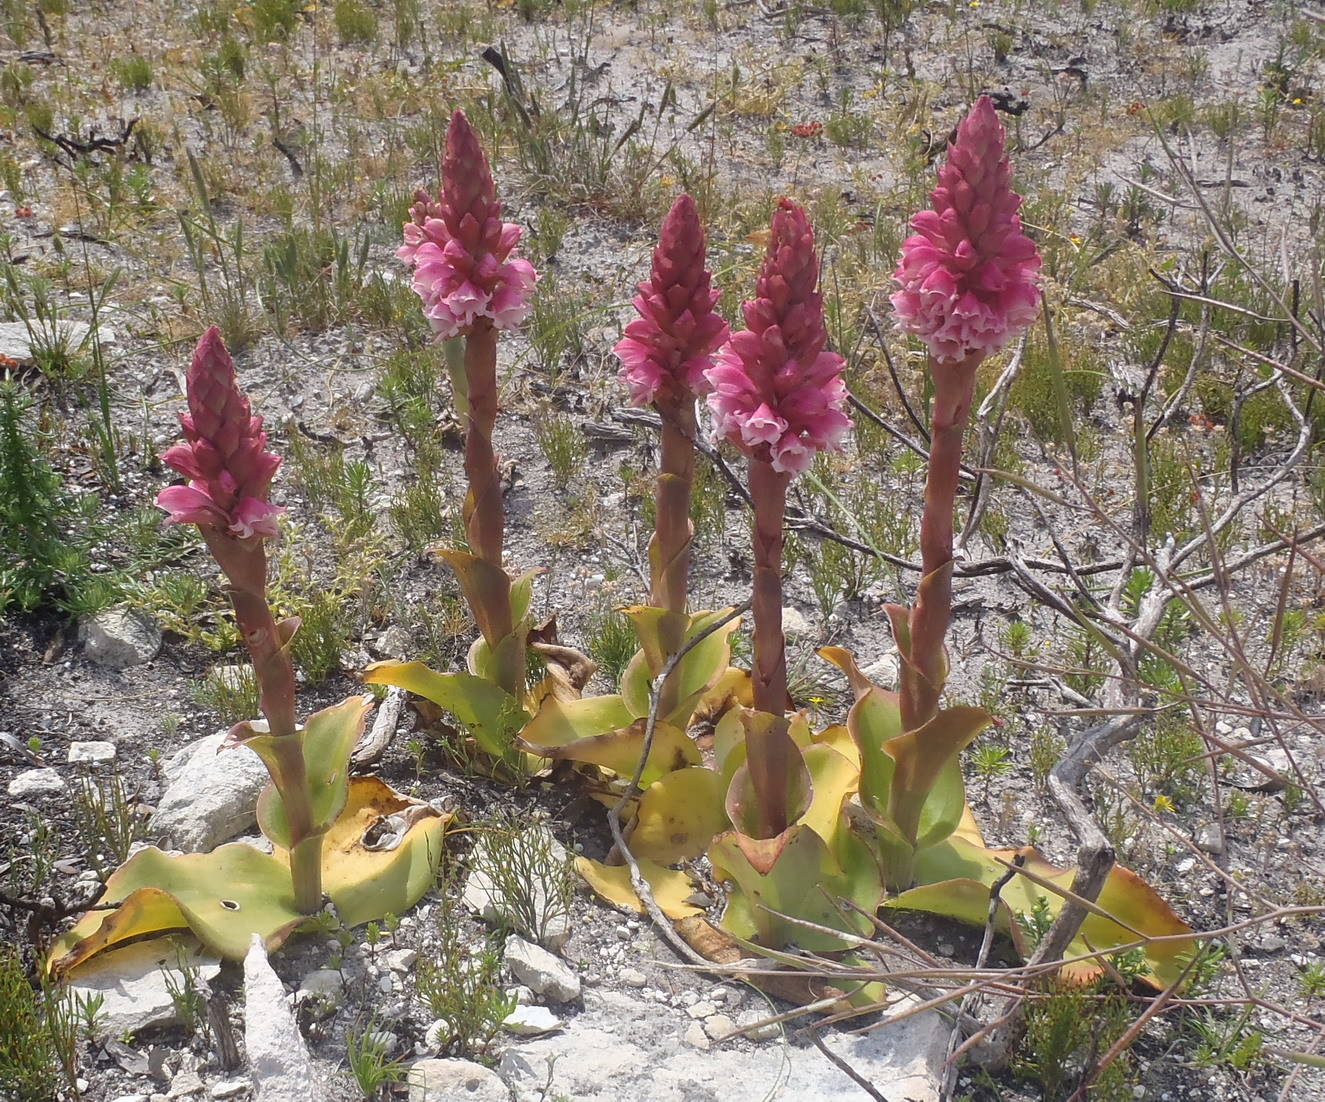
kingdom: Plantae
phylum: Tracheophyta
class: Liliopsida
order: Asparagales
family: Orchidaceae
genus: Satyrium
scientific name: Satyrium carneum
